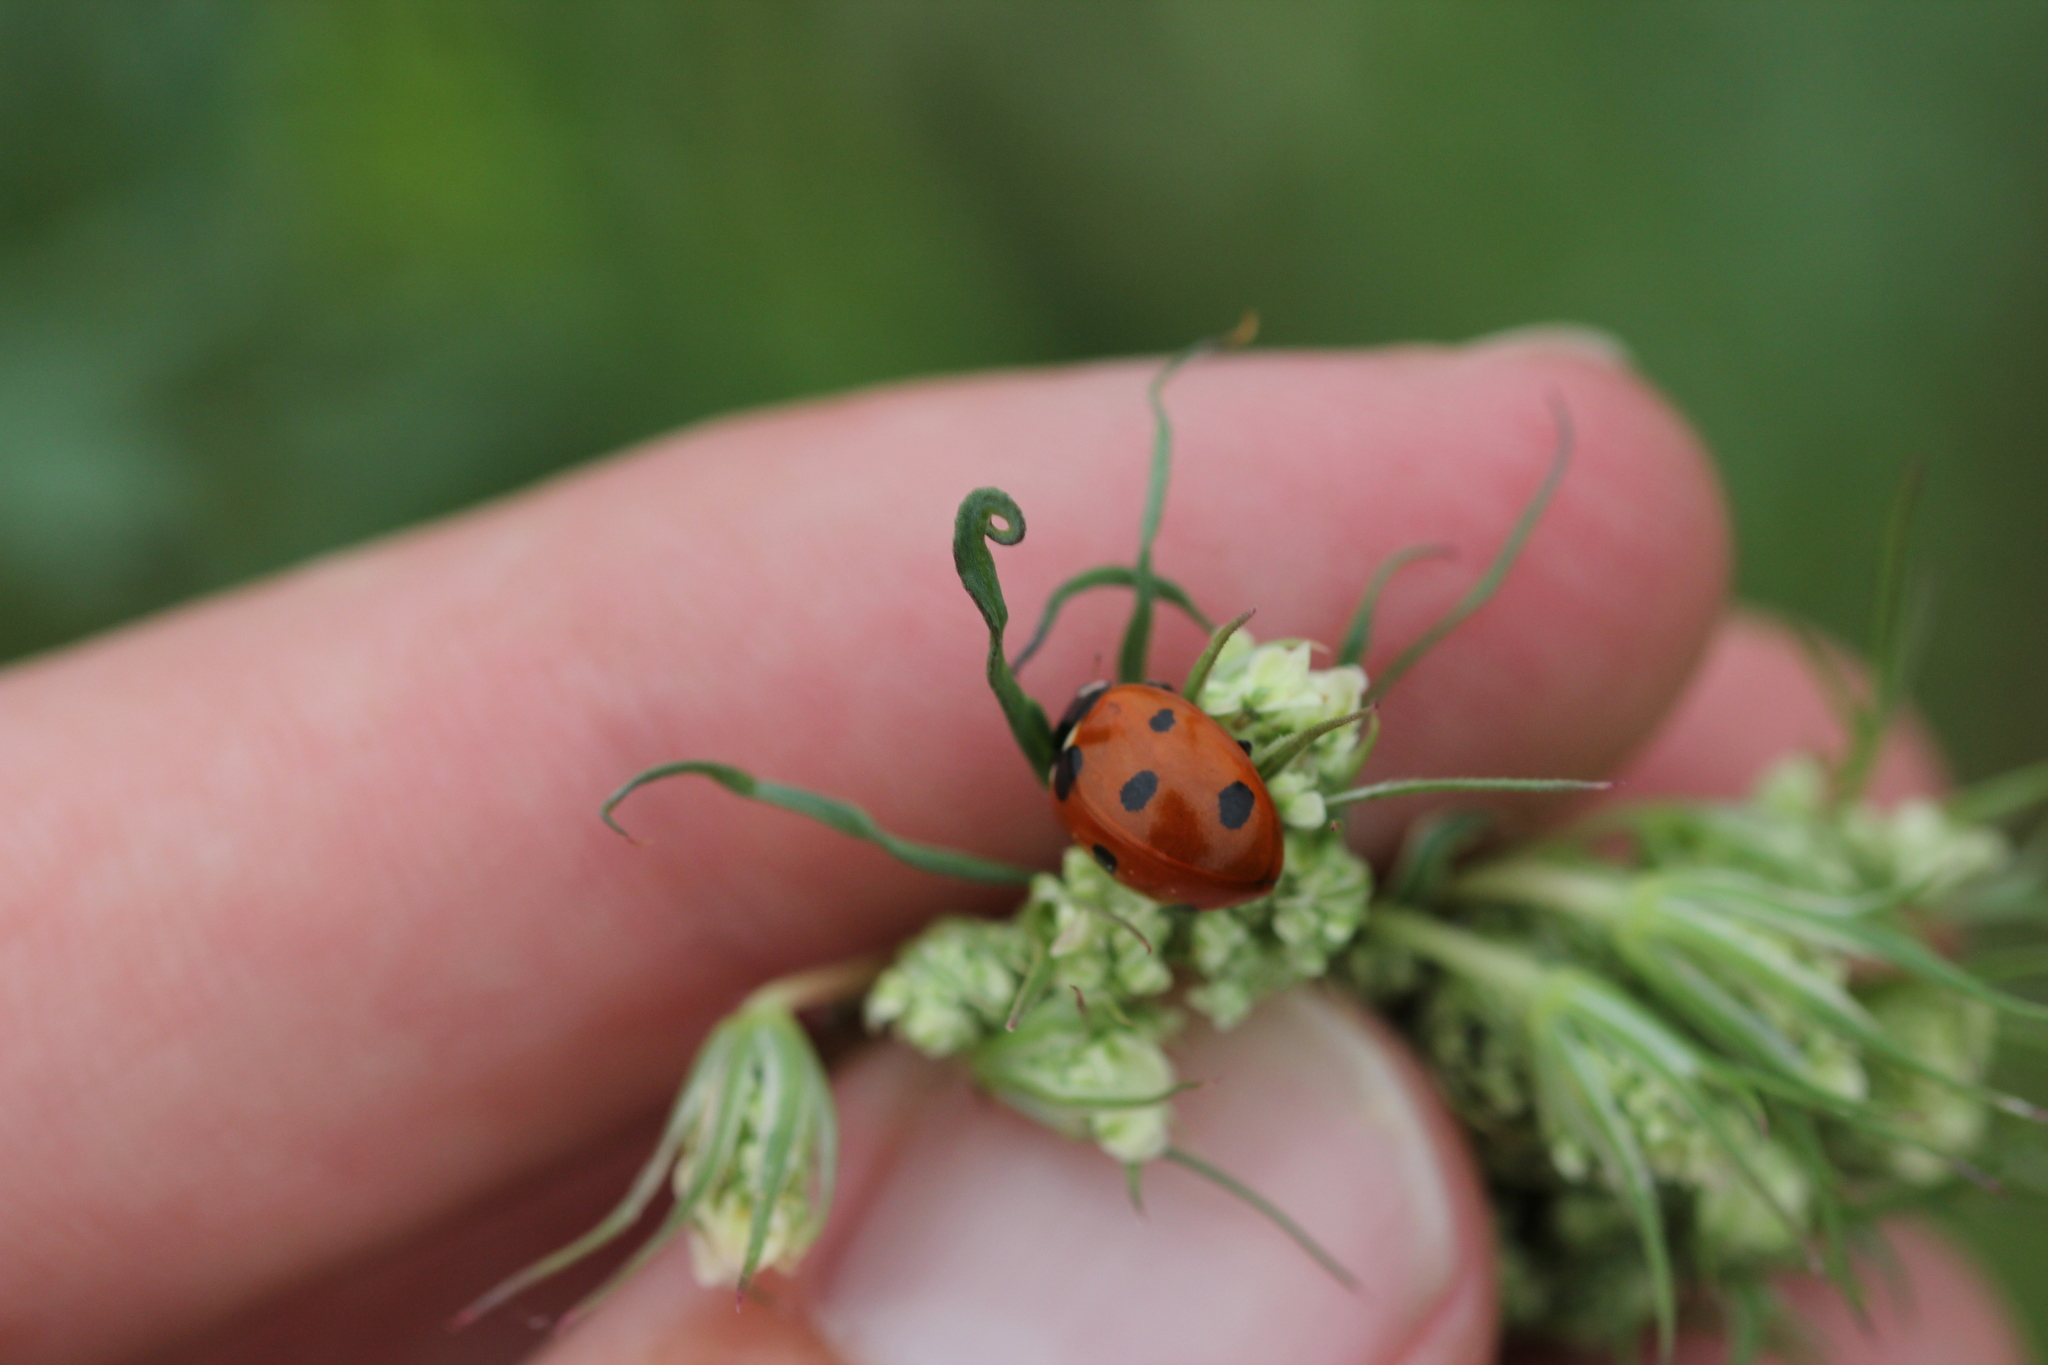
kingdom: Animalia
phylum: Arthropoda
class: Insecta
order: Coleoptera
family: Coccinellidae
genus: Coccinella
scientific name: Coccinella septempunctata
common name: Sevenspotted lady beetle
